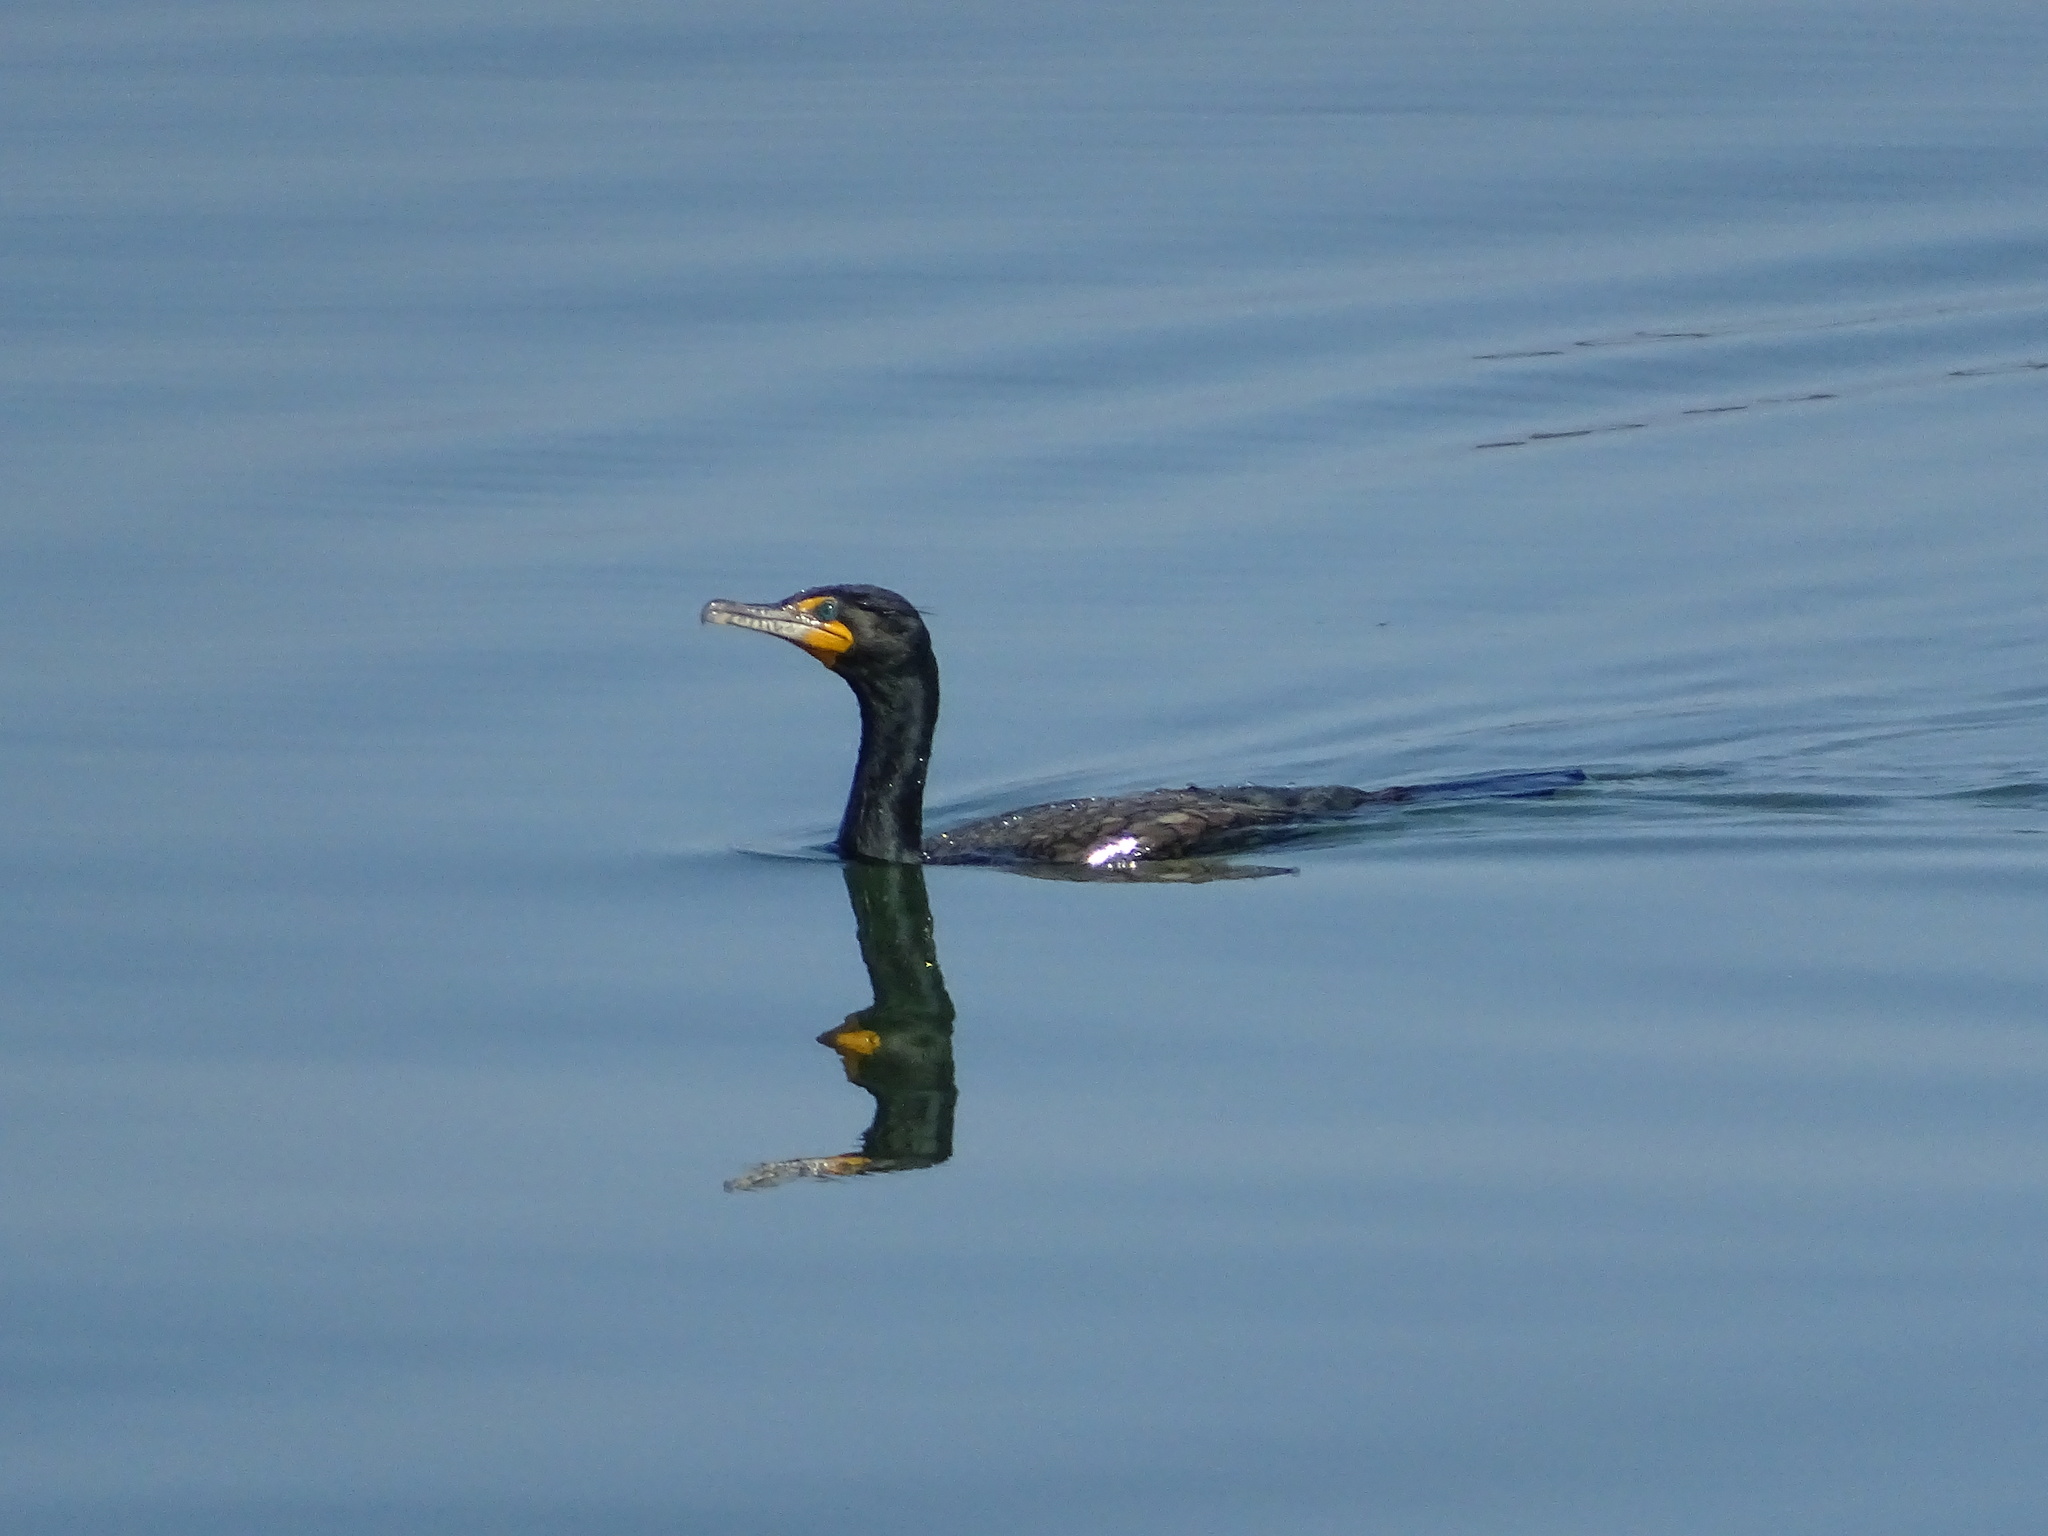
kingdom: Animalia
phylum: Chordata
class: Aves
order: Suliformes
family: Phalacrocoracidae
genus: Phalacrocorax
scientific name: Phalacrocorax auritus
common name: Double-crested cormorant
